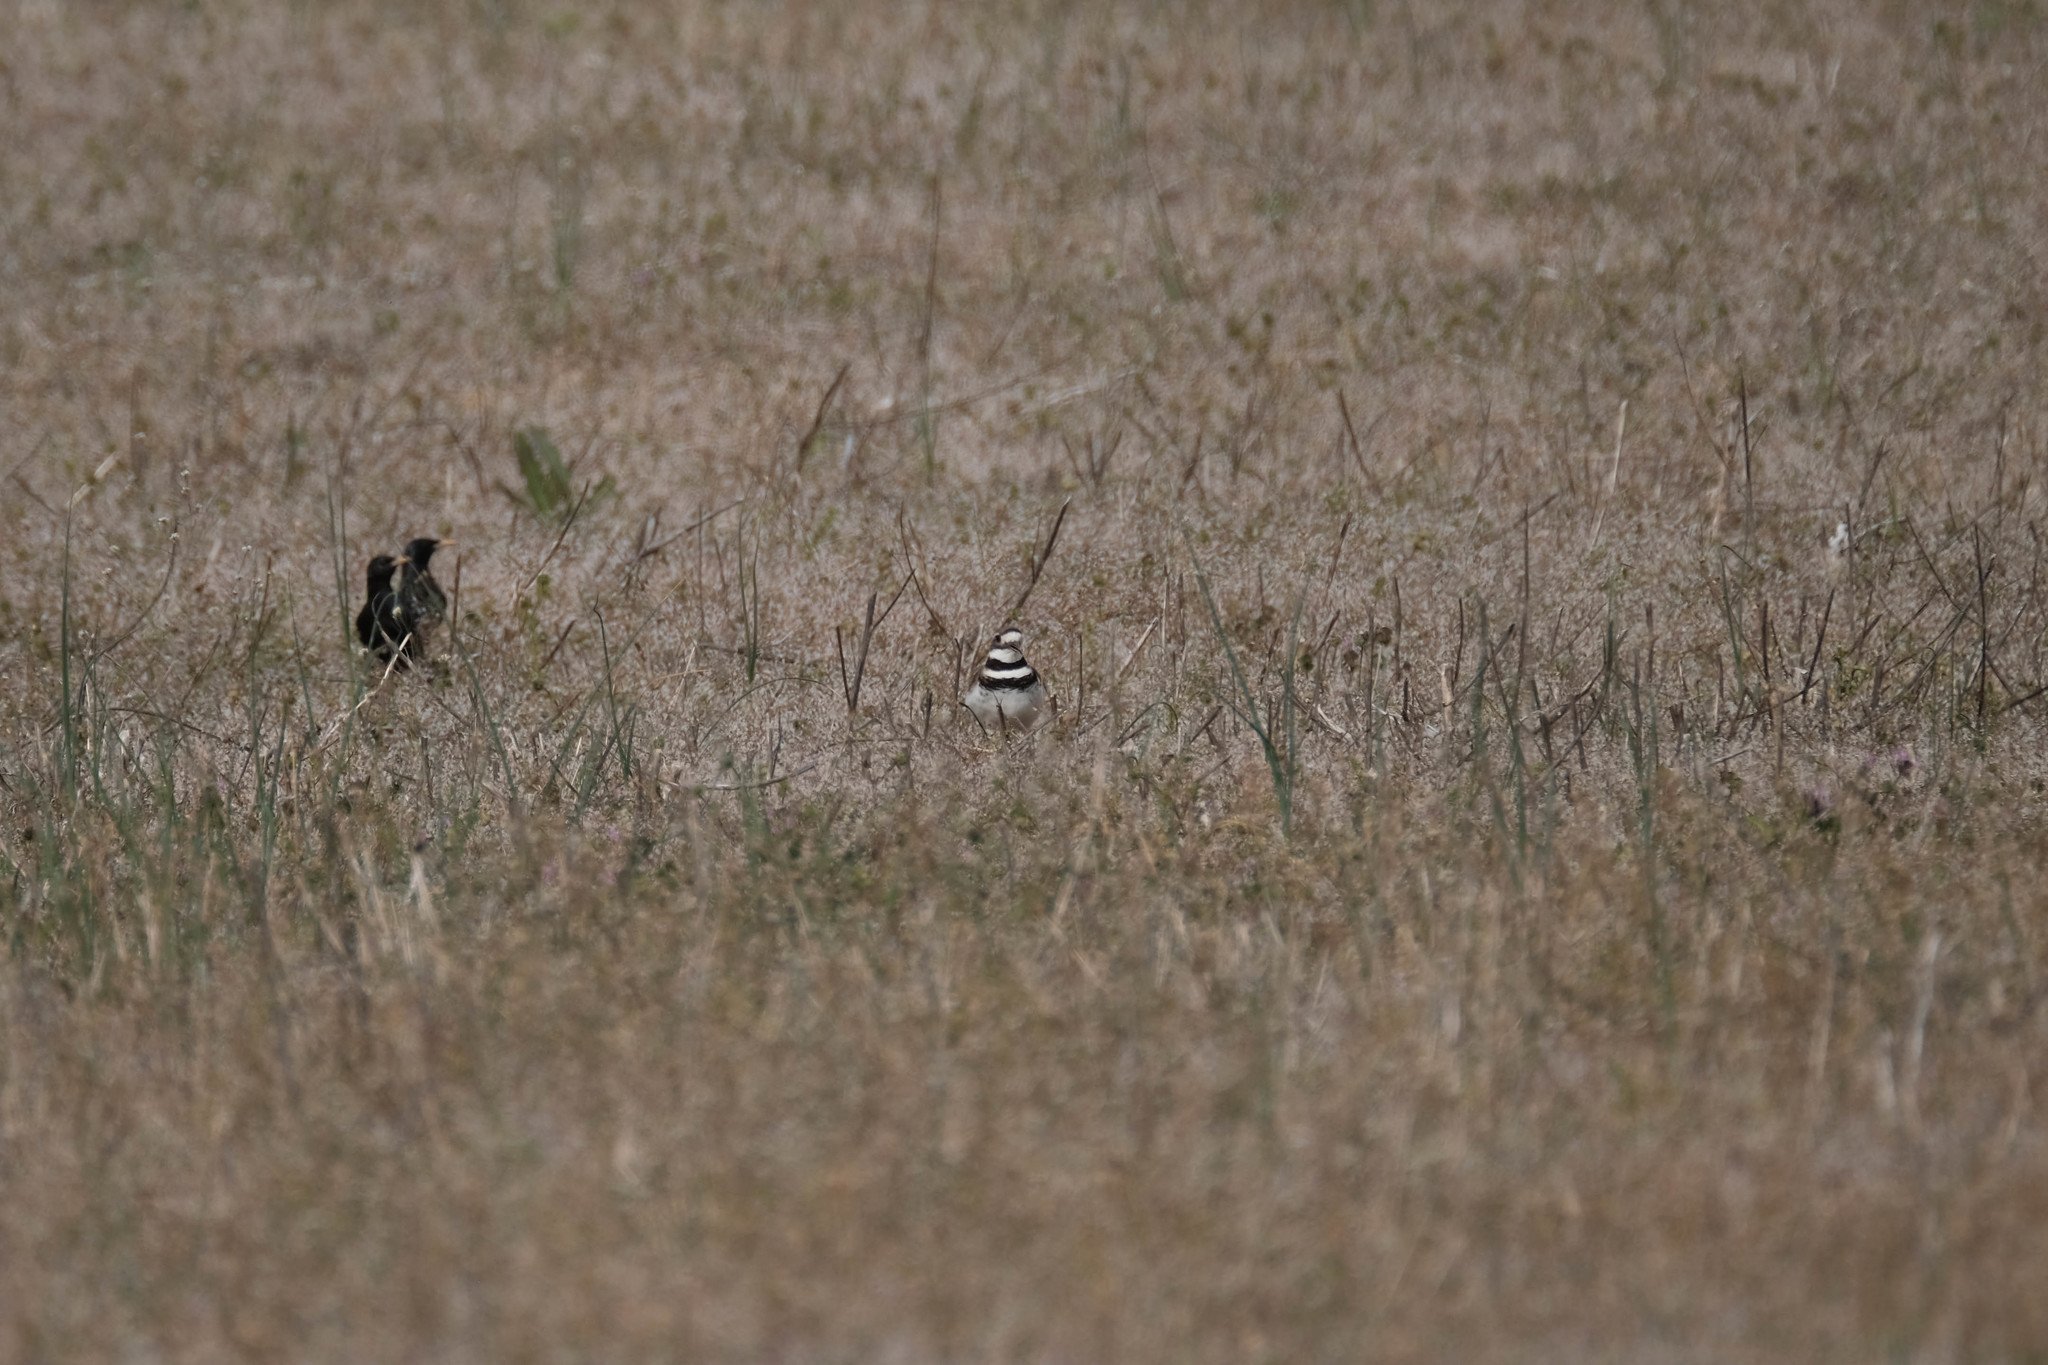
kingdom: Animalia
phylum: Chordata
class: Aves
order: Passeriformes
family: Sturnidae
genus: Sturnus
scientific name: Sturnus vulgaris
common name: Common starling
